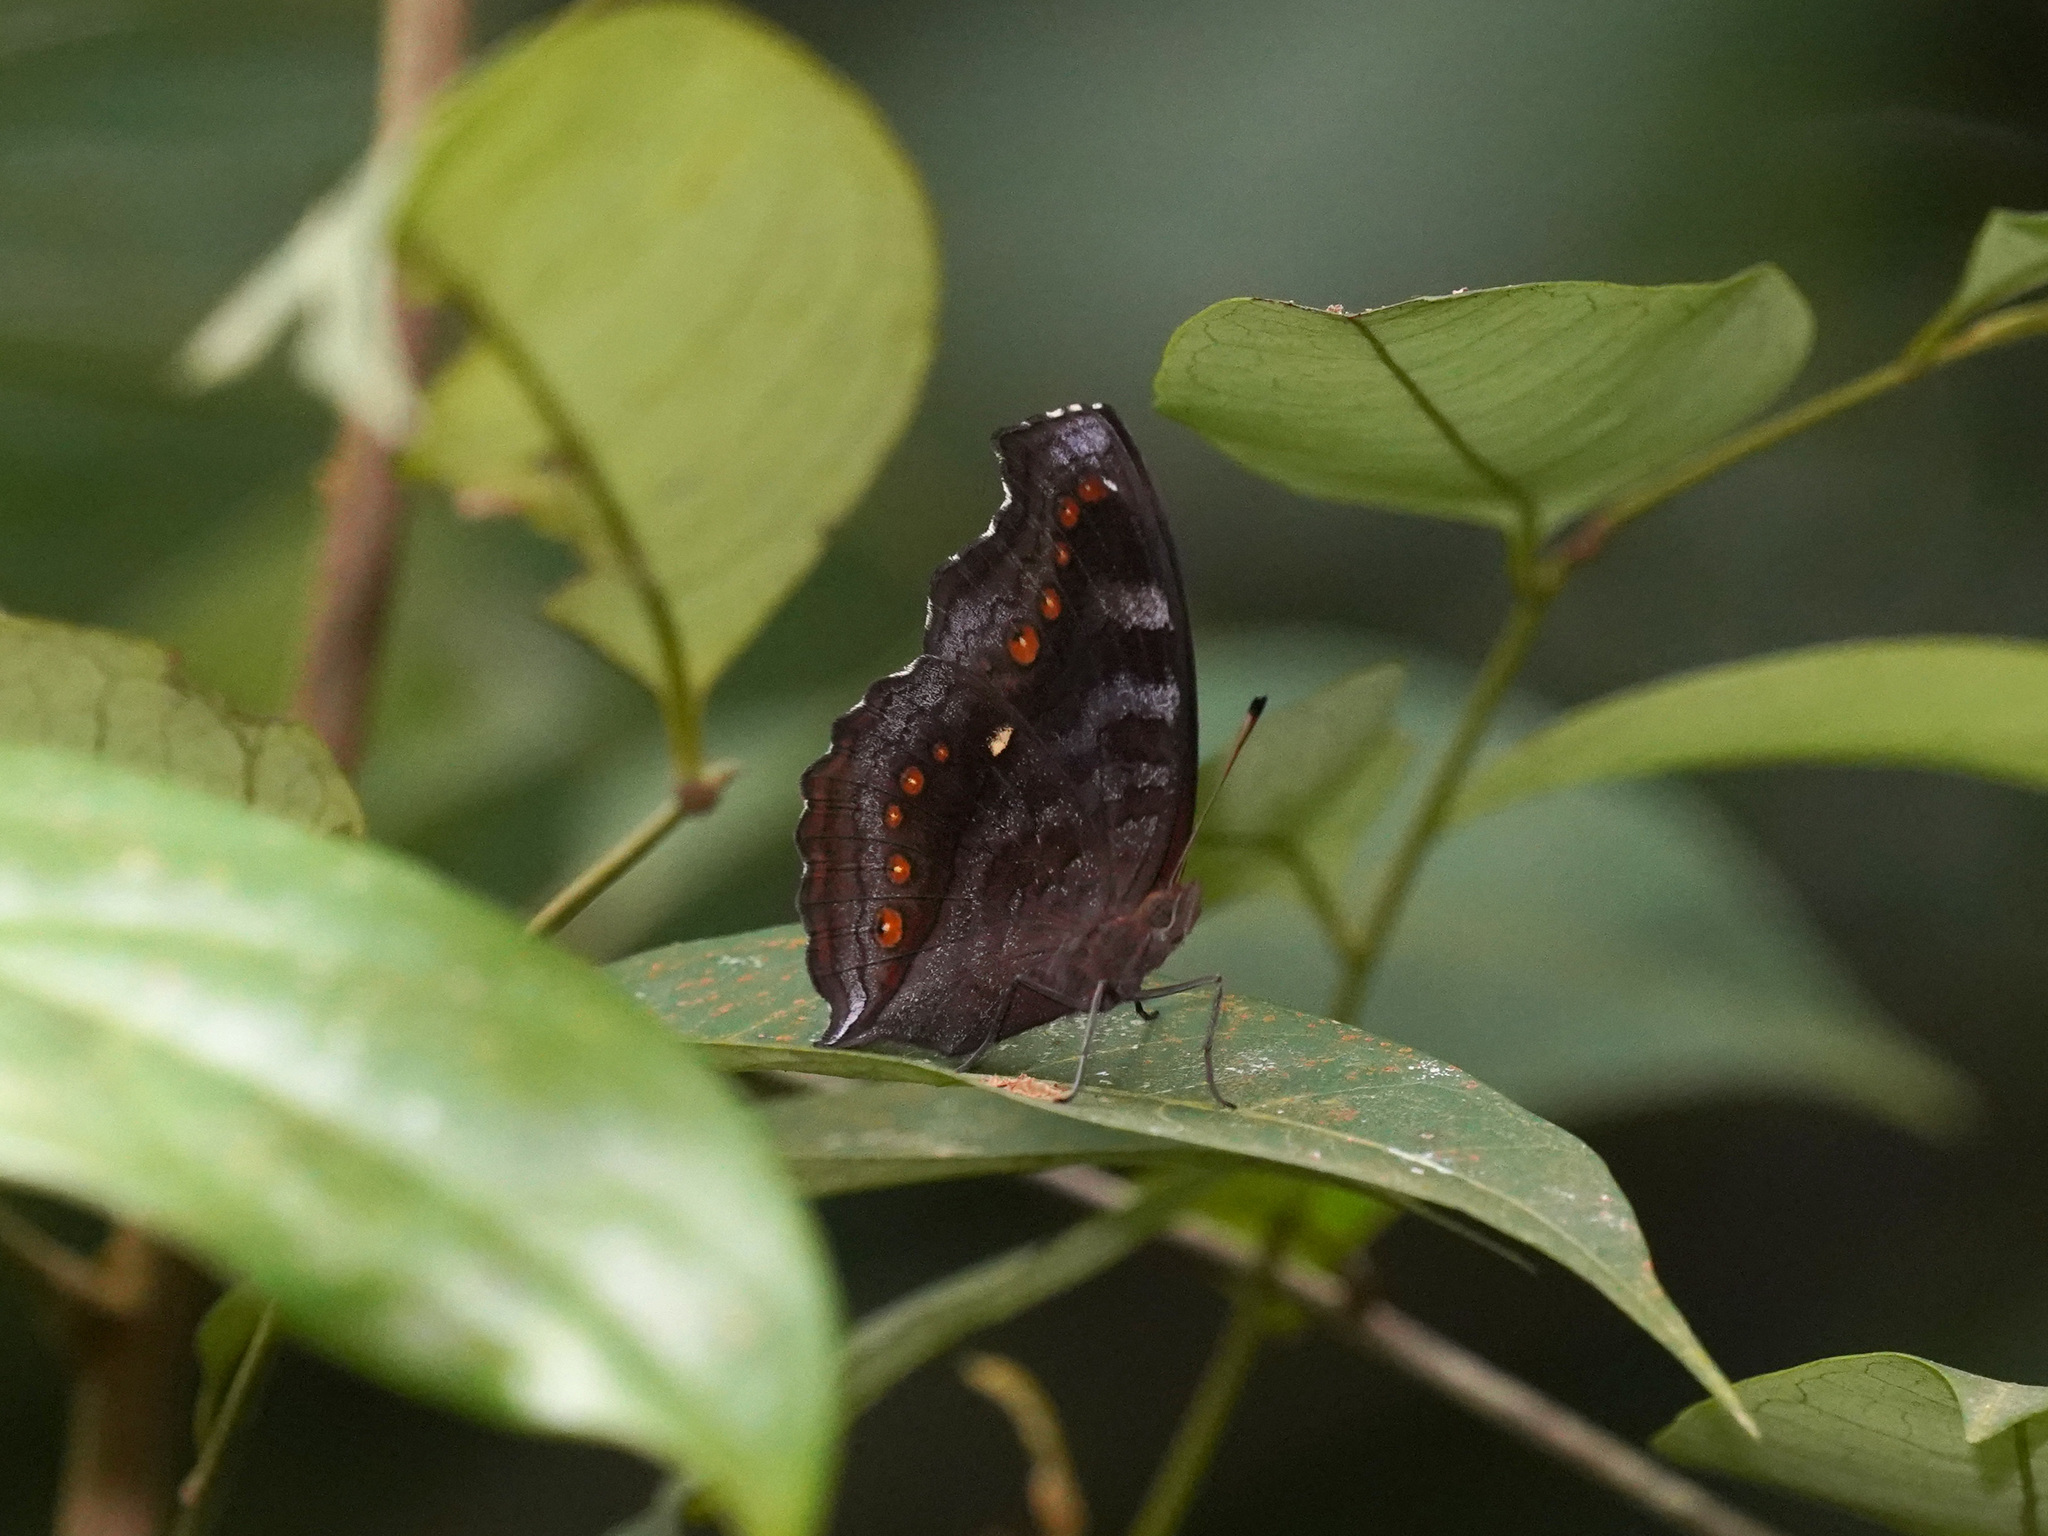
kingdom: Animalia
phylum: Arthropoda
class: Insecta
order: Lepidoptera
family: Nymphalidae
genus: Junonia
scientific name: Junonia hedonia
